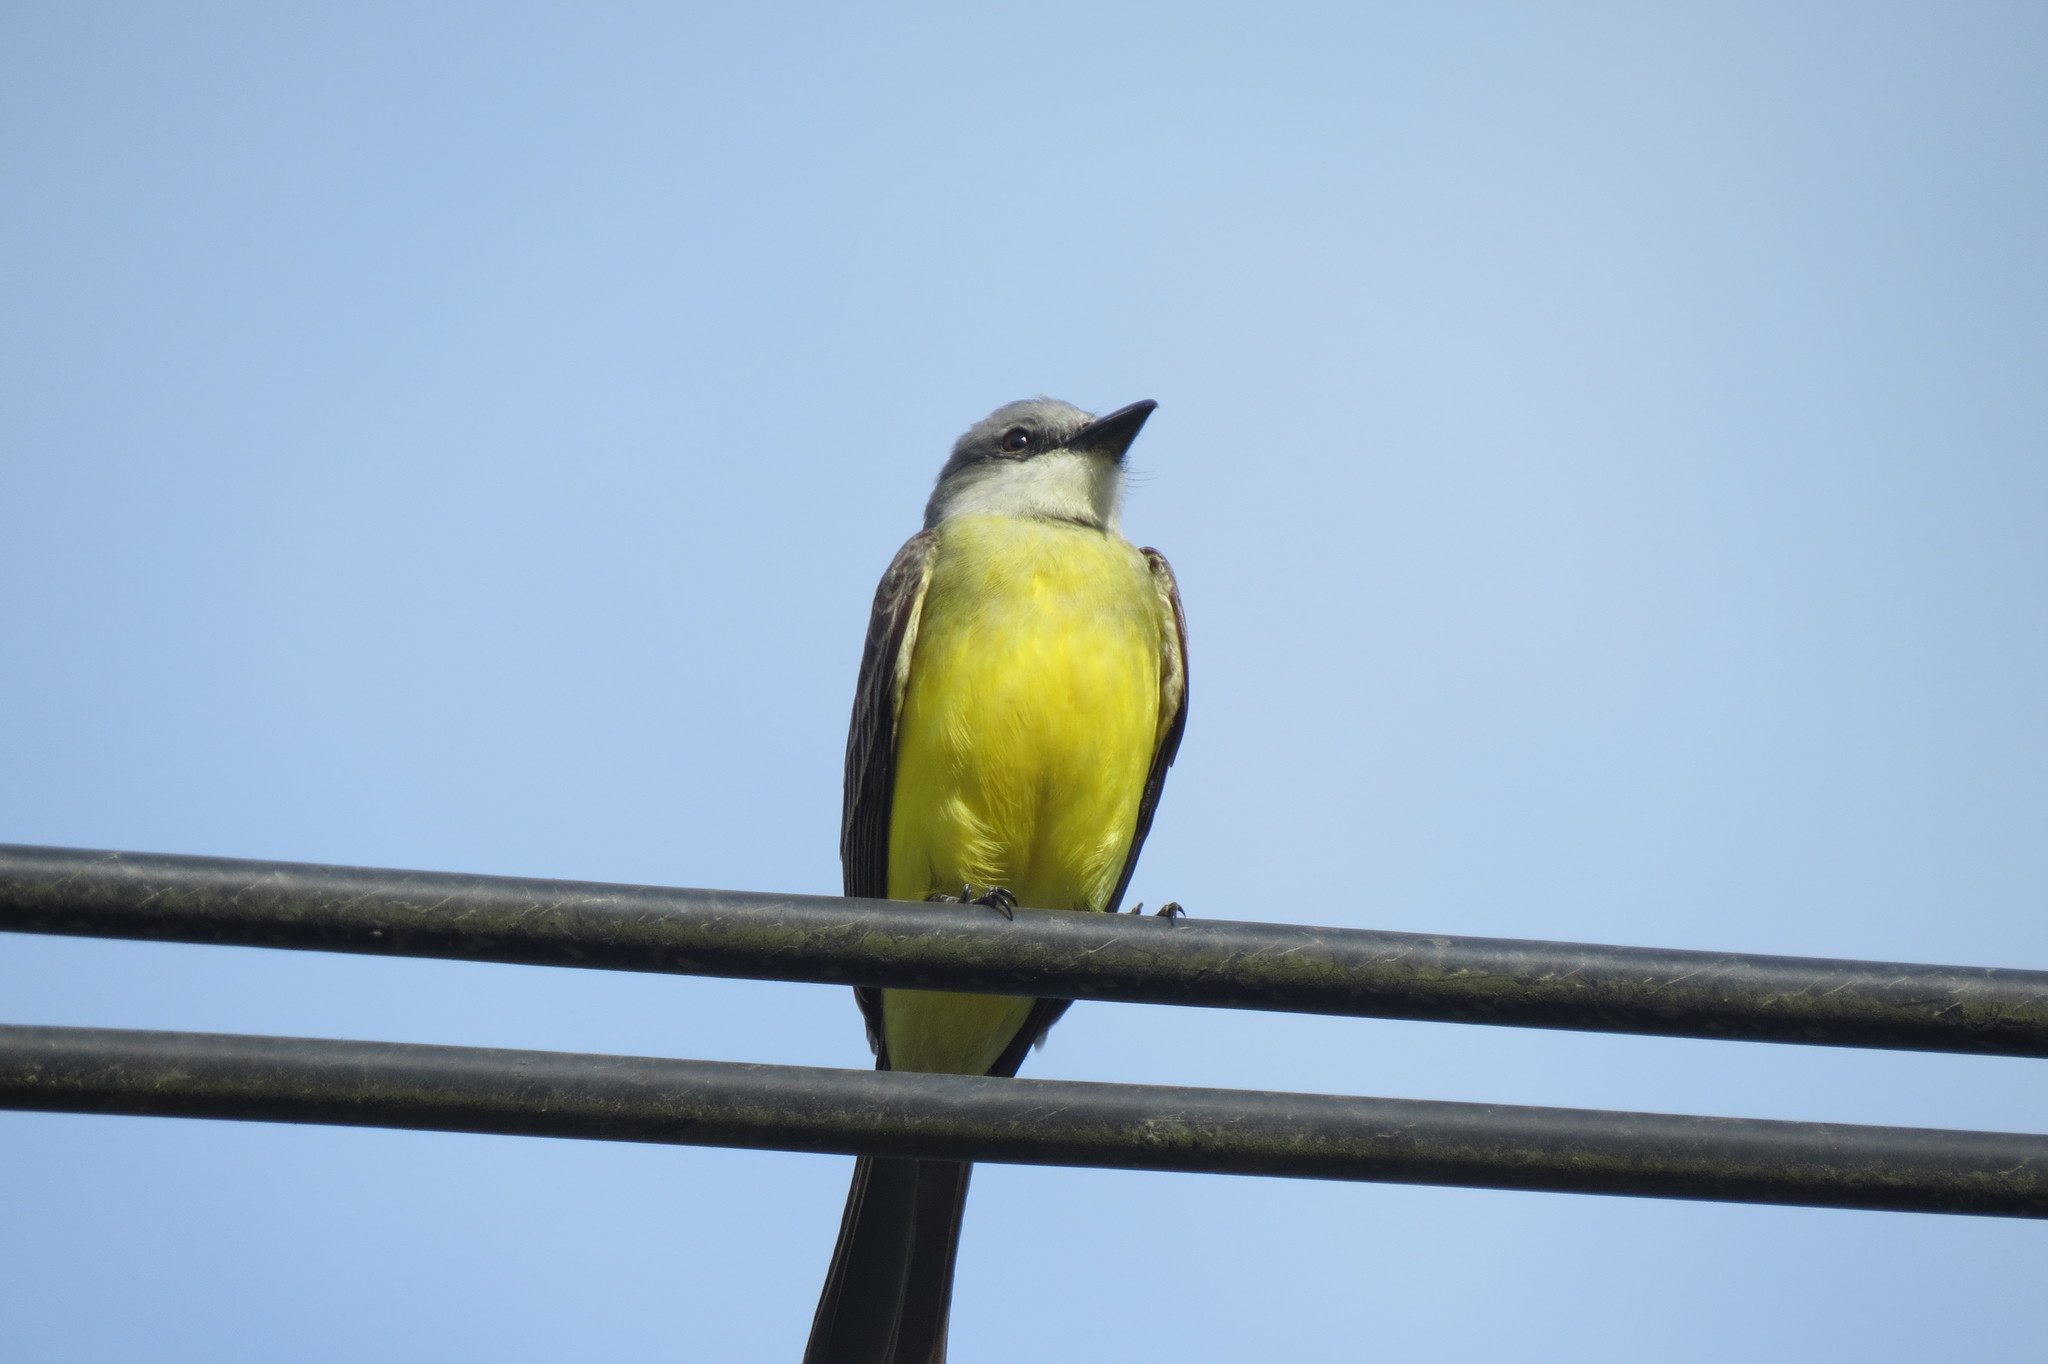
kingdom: Animalia
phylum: Chordata
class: Aves
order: Passeriformes
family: Tyrannidae
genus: Tyrannus
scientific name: Tyrannus melancholicus
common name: Tropical kingbird
